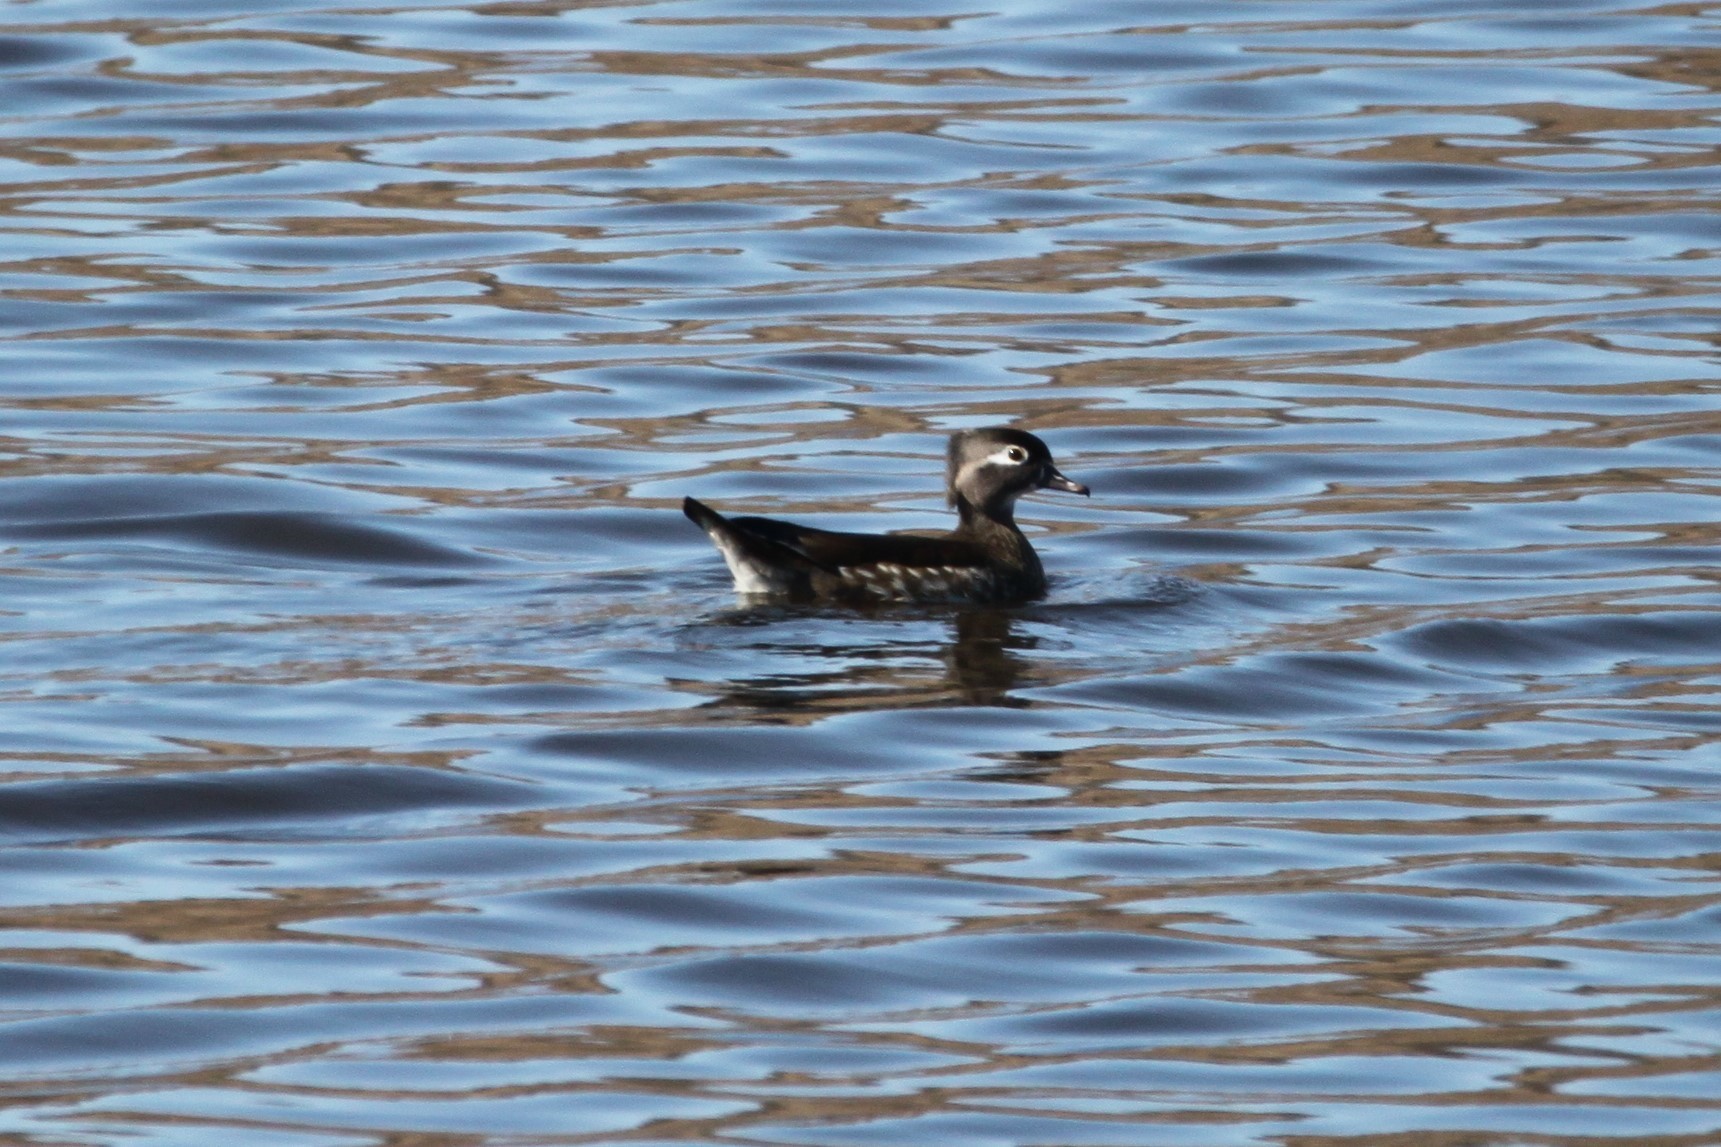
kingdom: Animalia
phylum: Chordata
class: Aves
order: Anseriformes
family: Anatidae
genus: Aix
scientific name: Aix sponsa
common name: Wood duck
